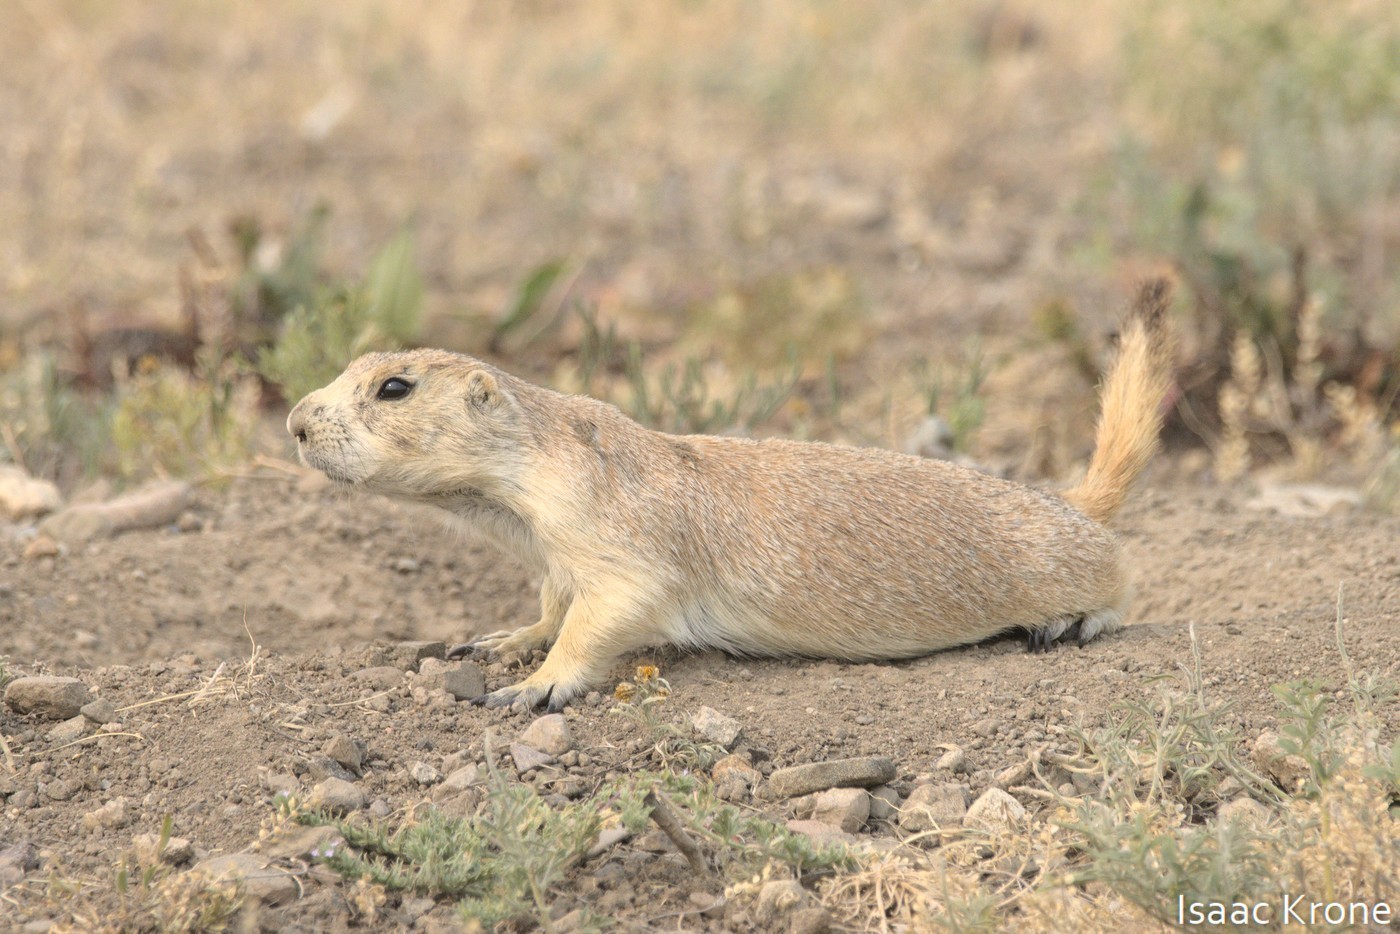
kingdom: Animalia
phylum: Chordata
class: Mammalia
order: Rodentia
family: Sciuridae
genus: Cynomys
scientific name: Cynomys ludovicianus
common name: Black-tailed prairie dog
